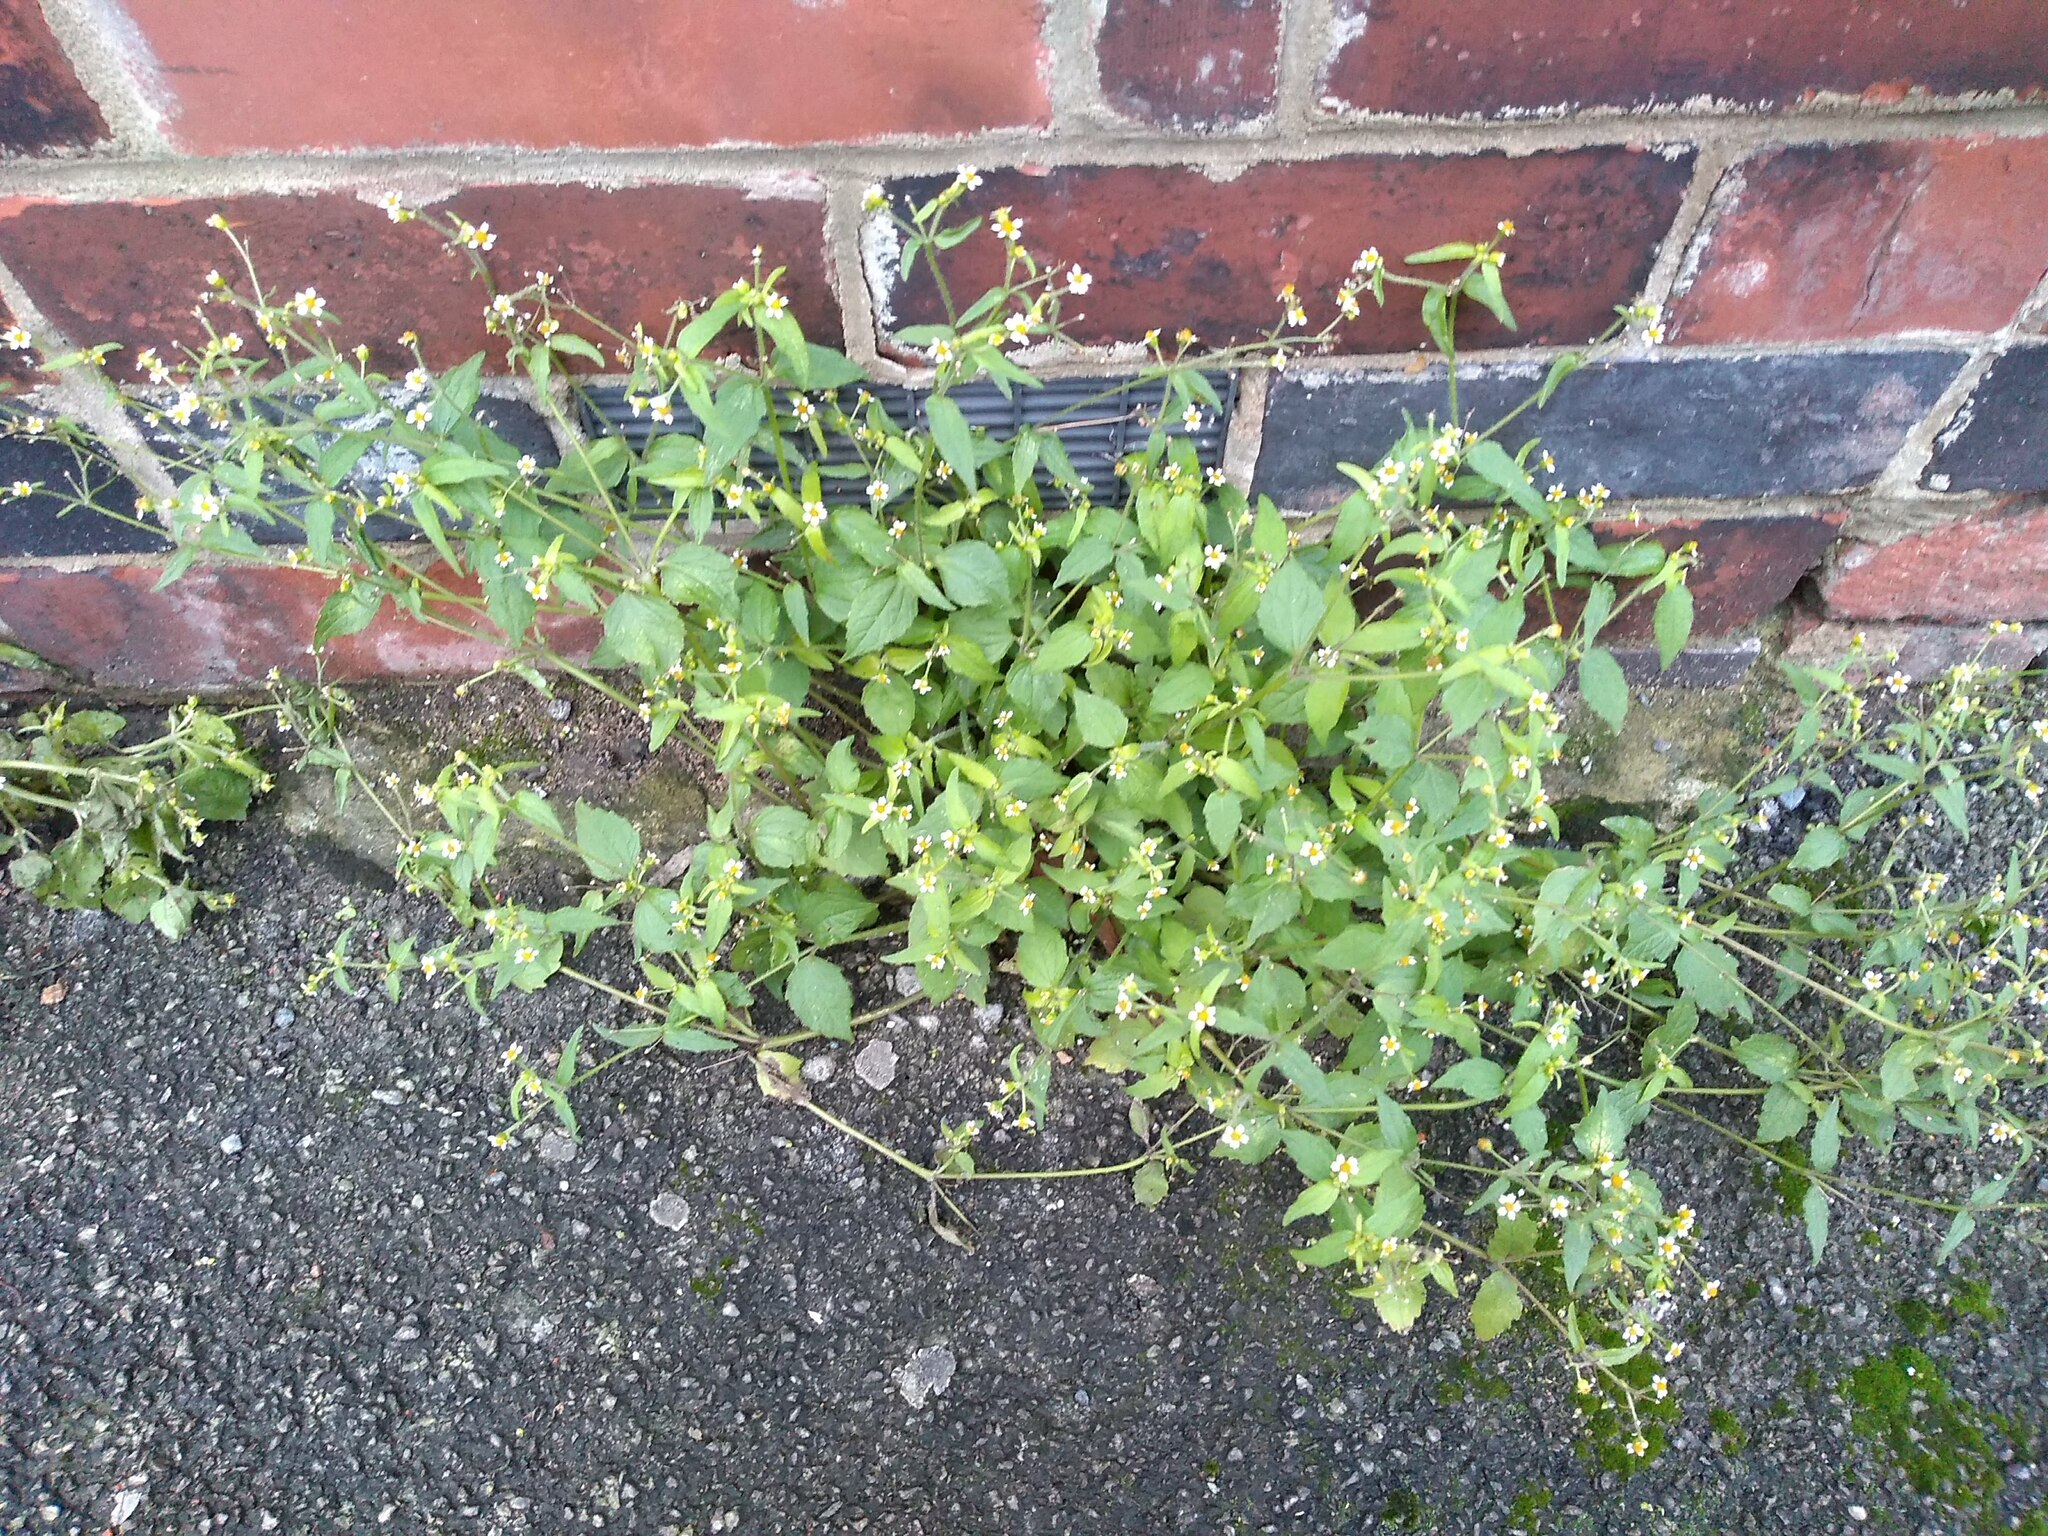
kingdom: Plantae
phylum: Tracheophyta
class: Magnoliopsida
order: Asterales
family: Asteraceae
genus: Galinsoga
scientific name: Galinsoga quadriradiata
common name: Shaggy soldier
